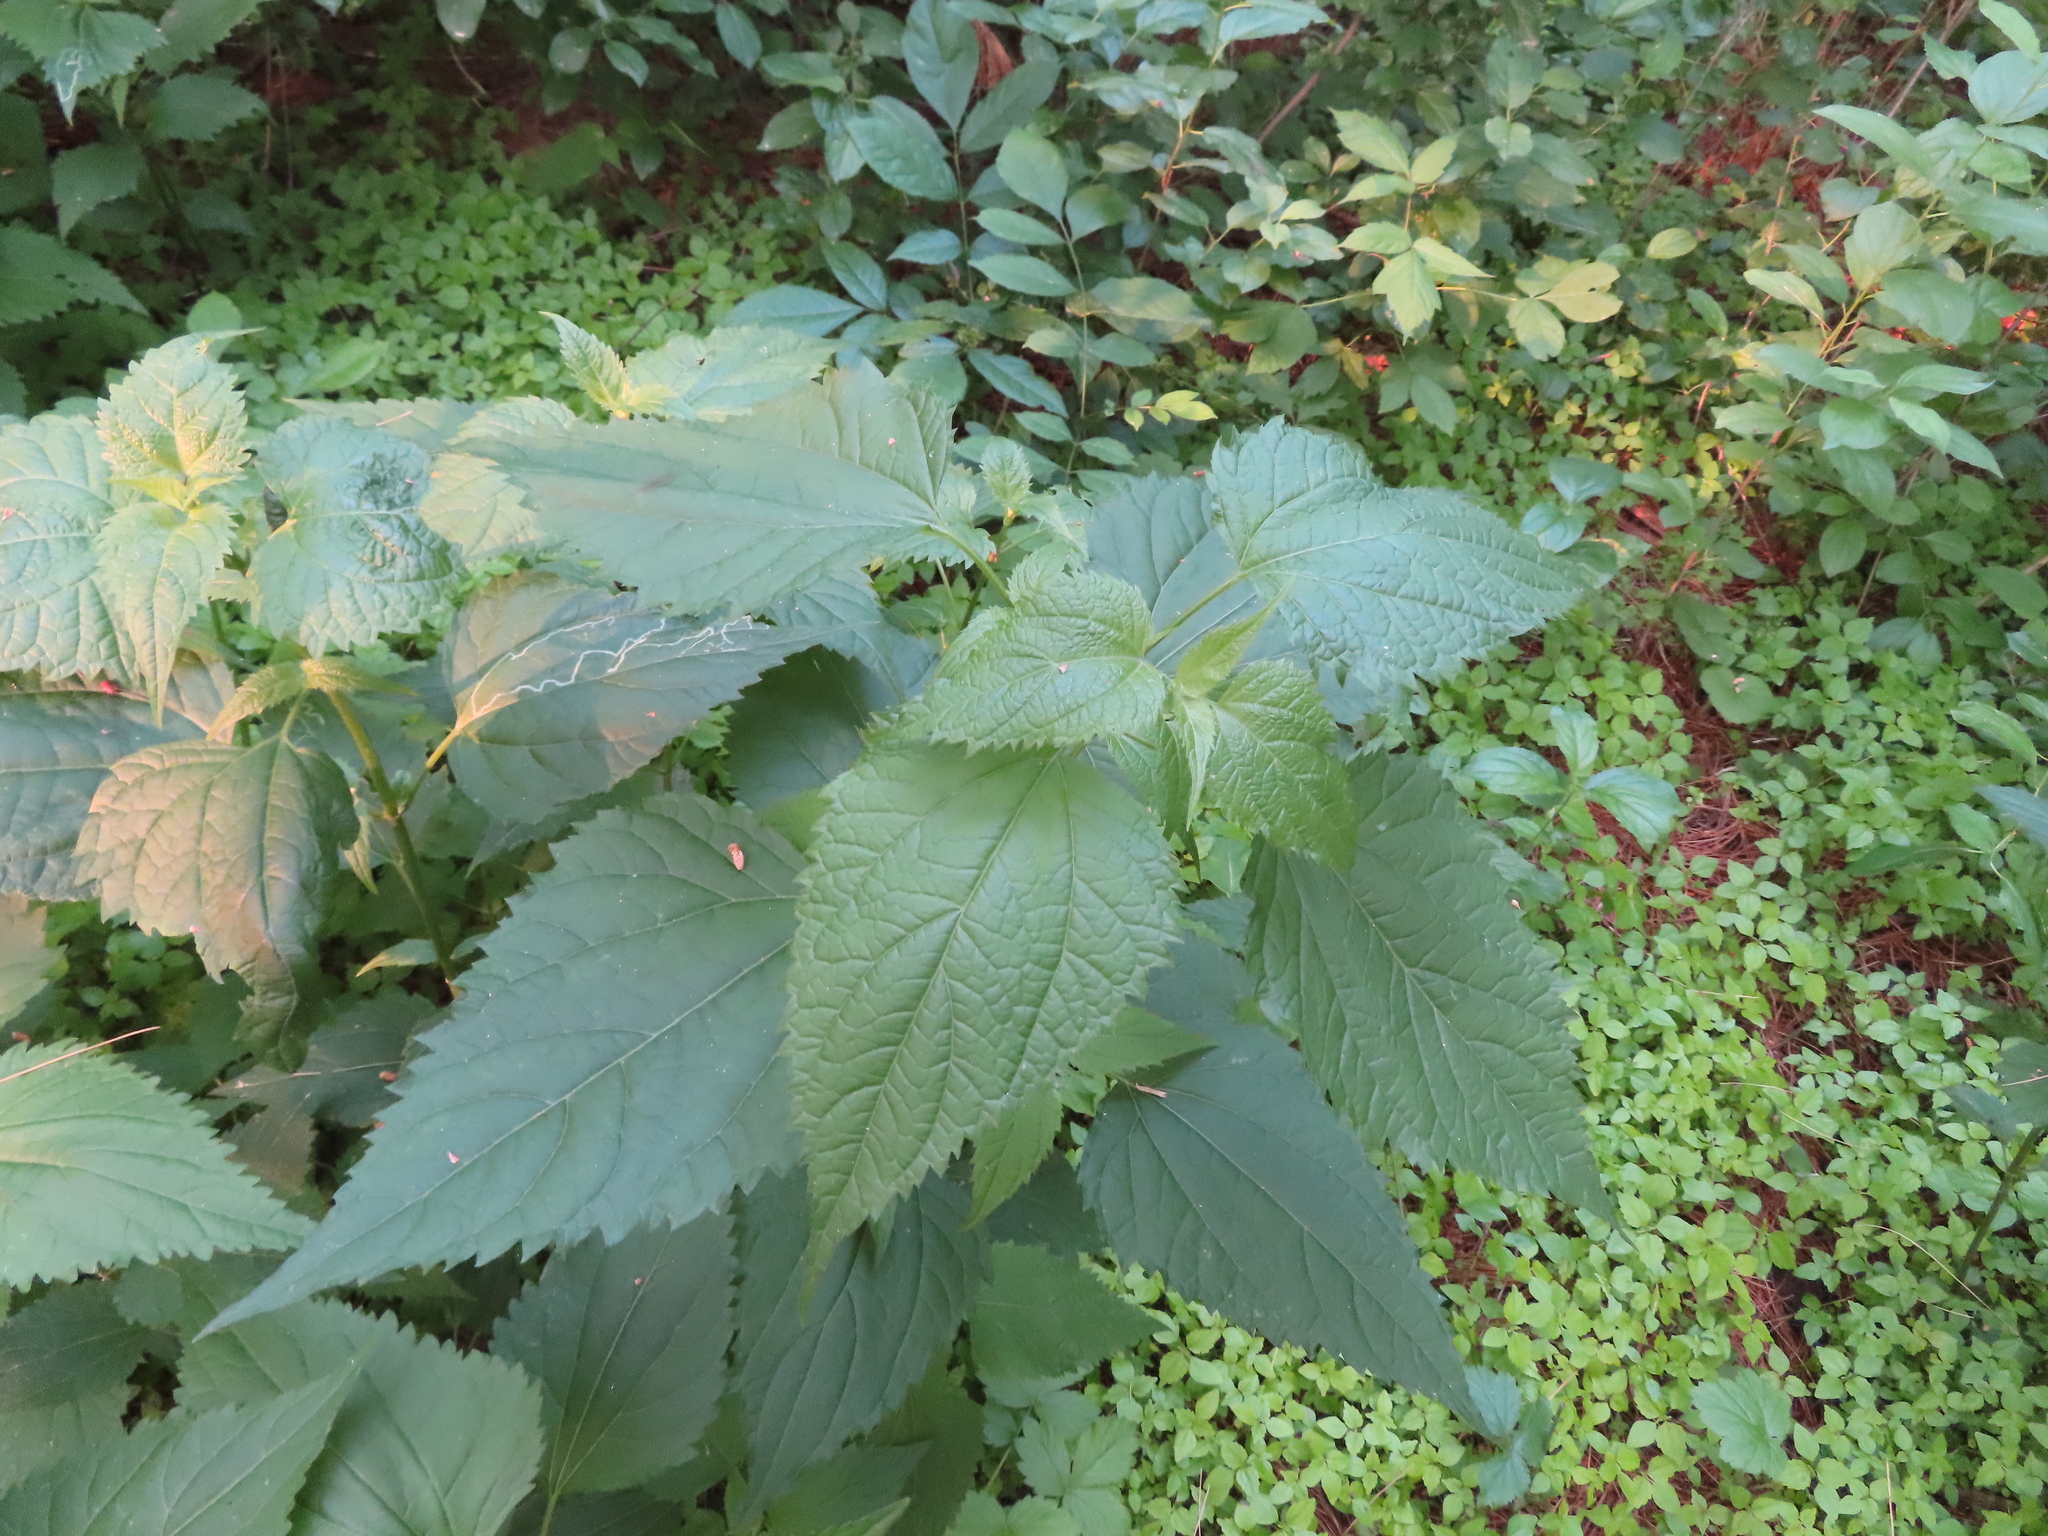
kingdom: Plantae
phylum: Tracheophyta
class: Magnoliopsida
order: Asterales
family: Asteraceae
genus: Ageratina
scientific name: Ageratina altissima
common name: White snakeroot
